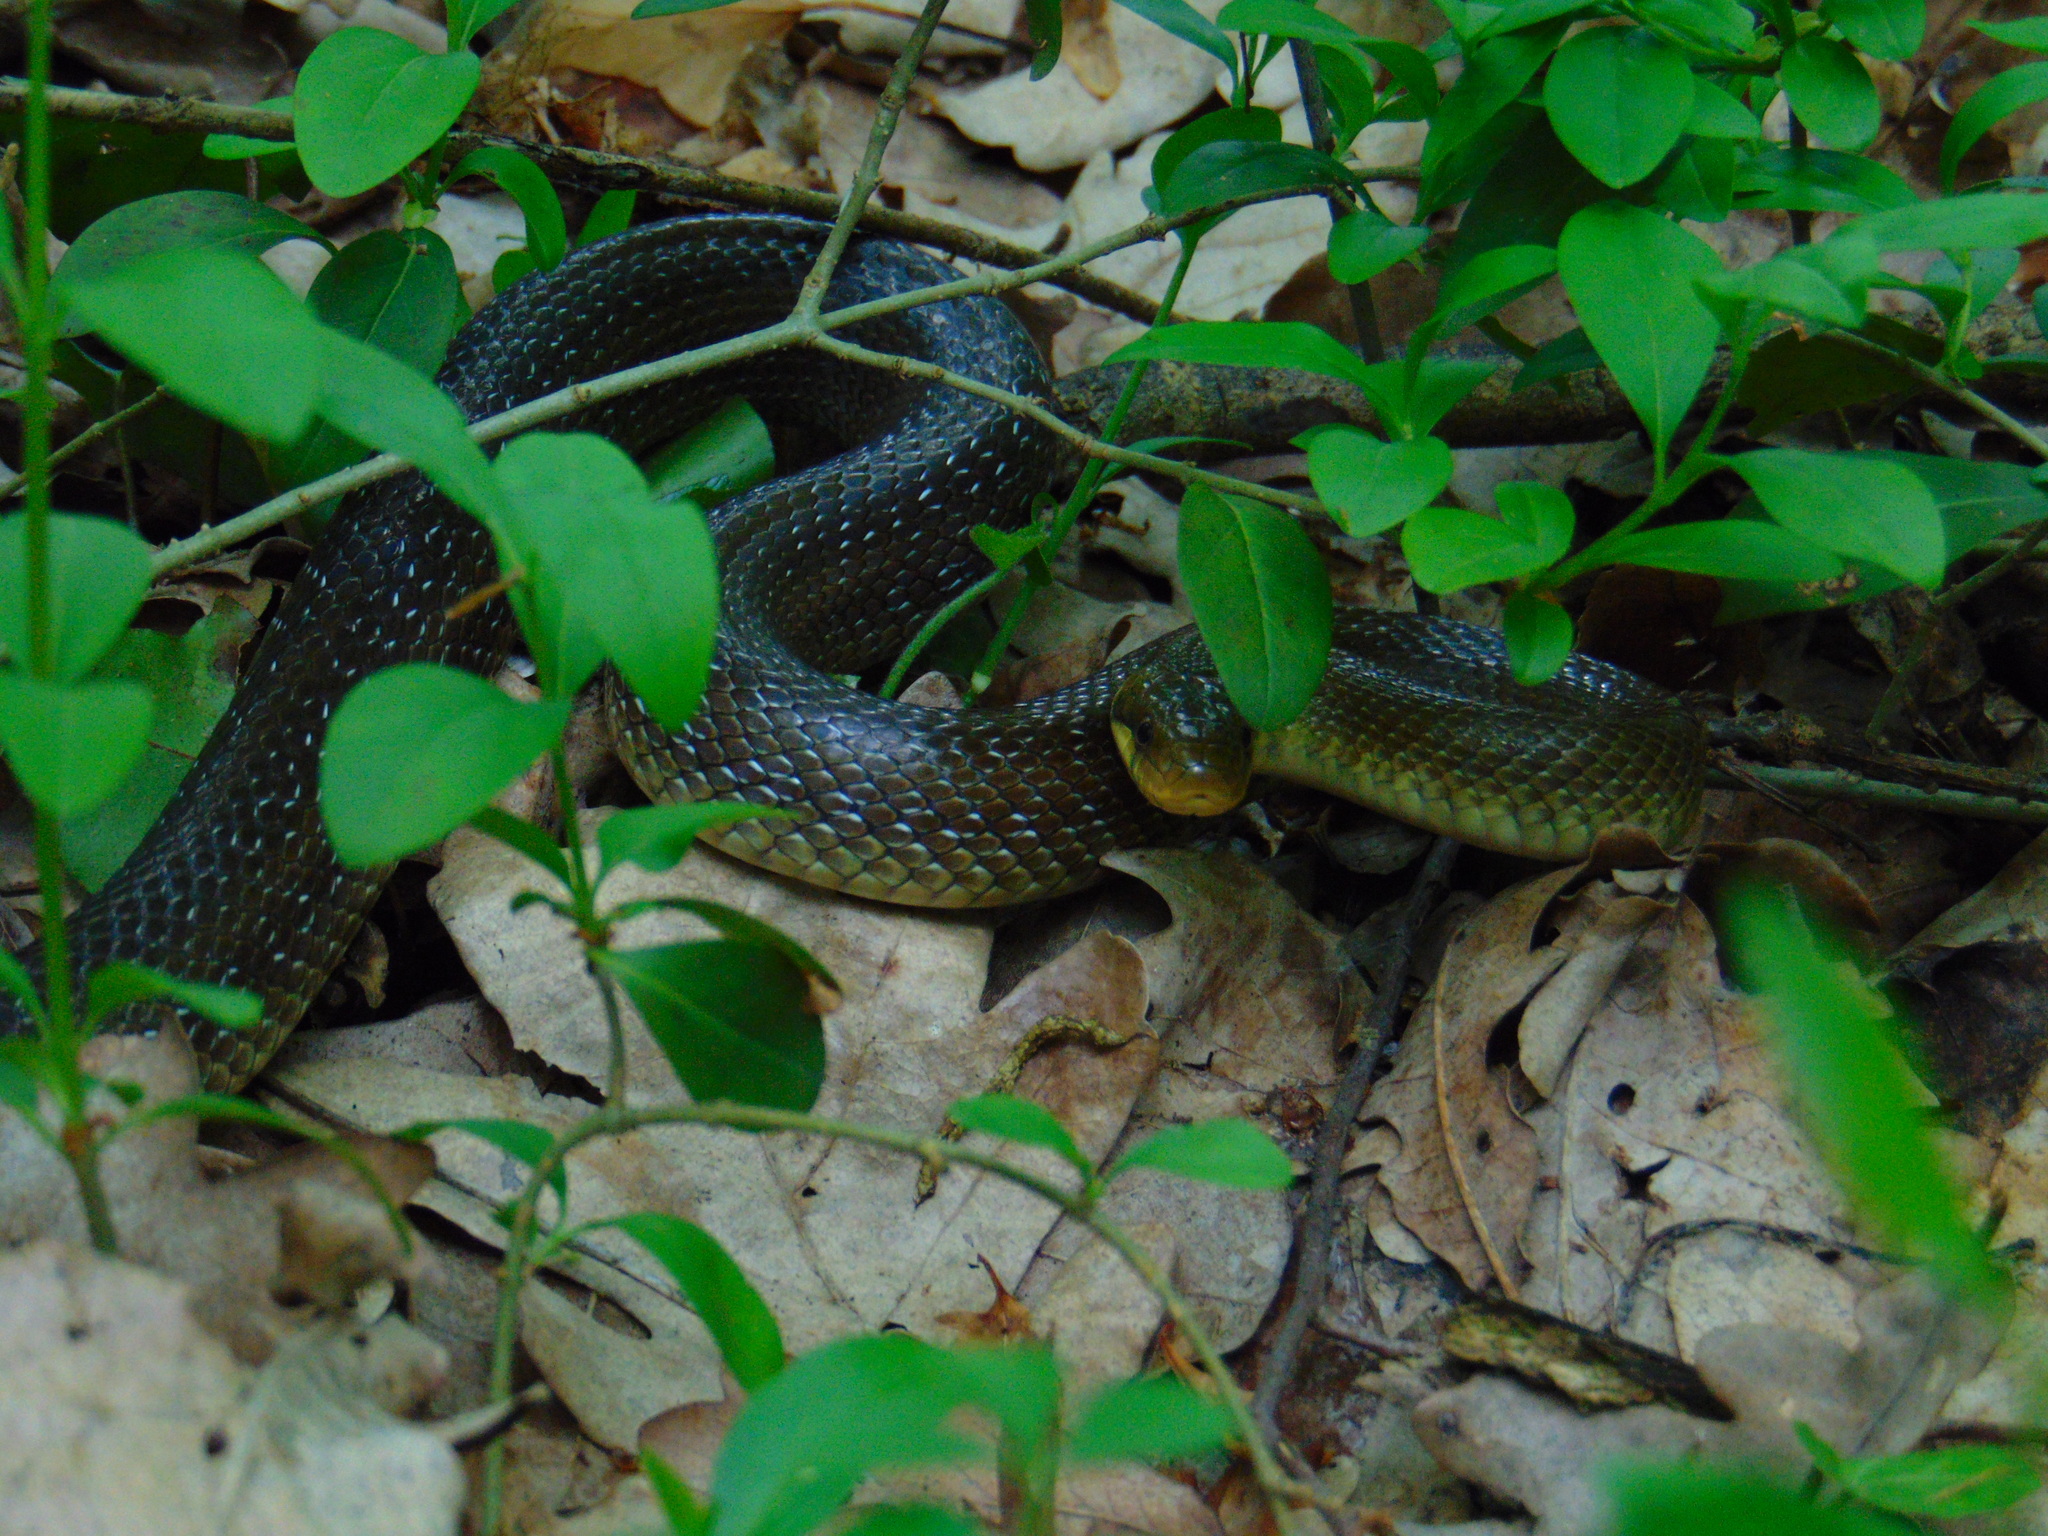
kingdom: Animalia
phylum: Chordata
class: Squamata
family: Colubridae
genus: Zamenis
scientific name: Zamenis longissimus
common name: Aesculapean snake
